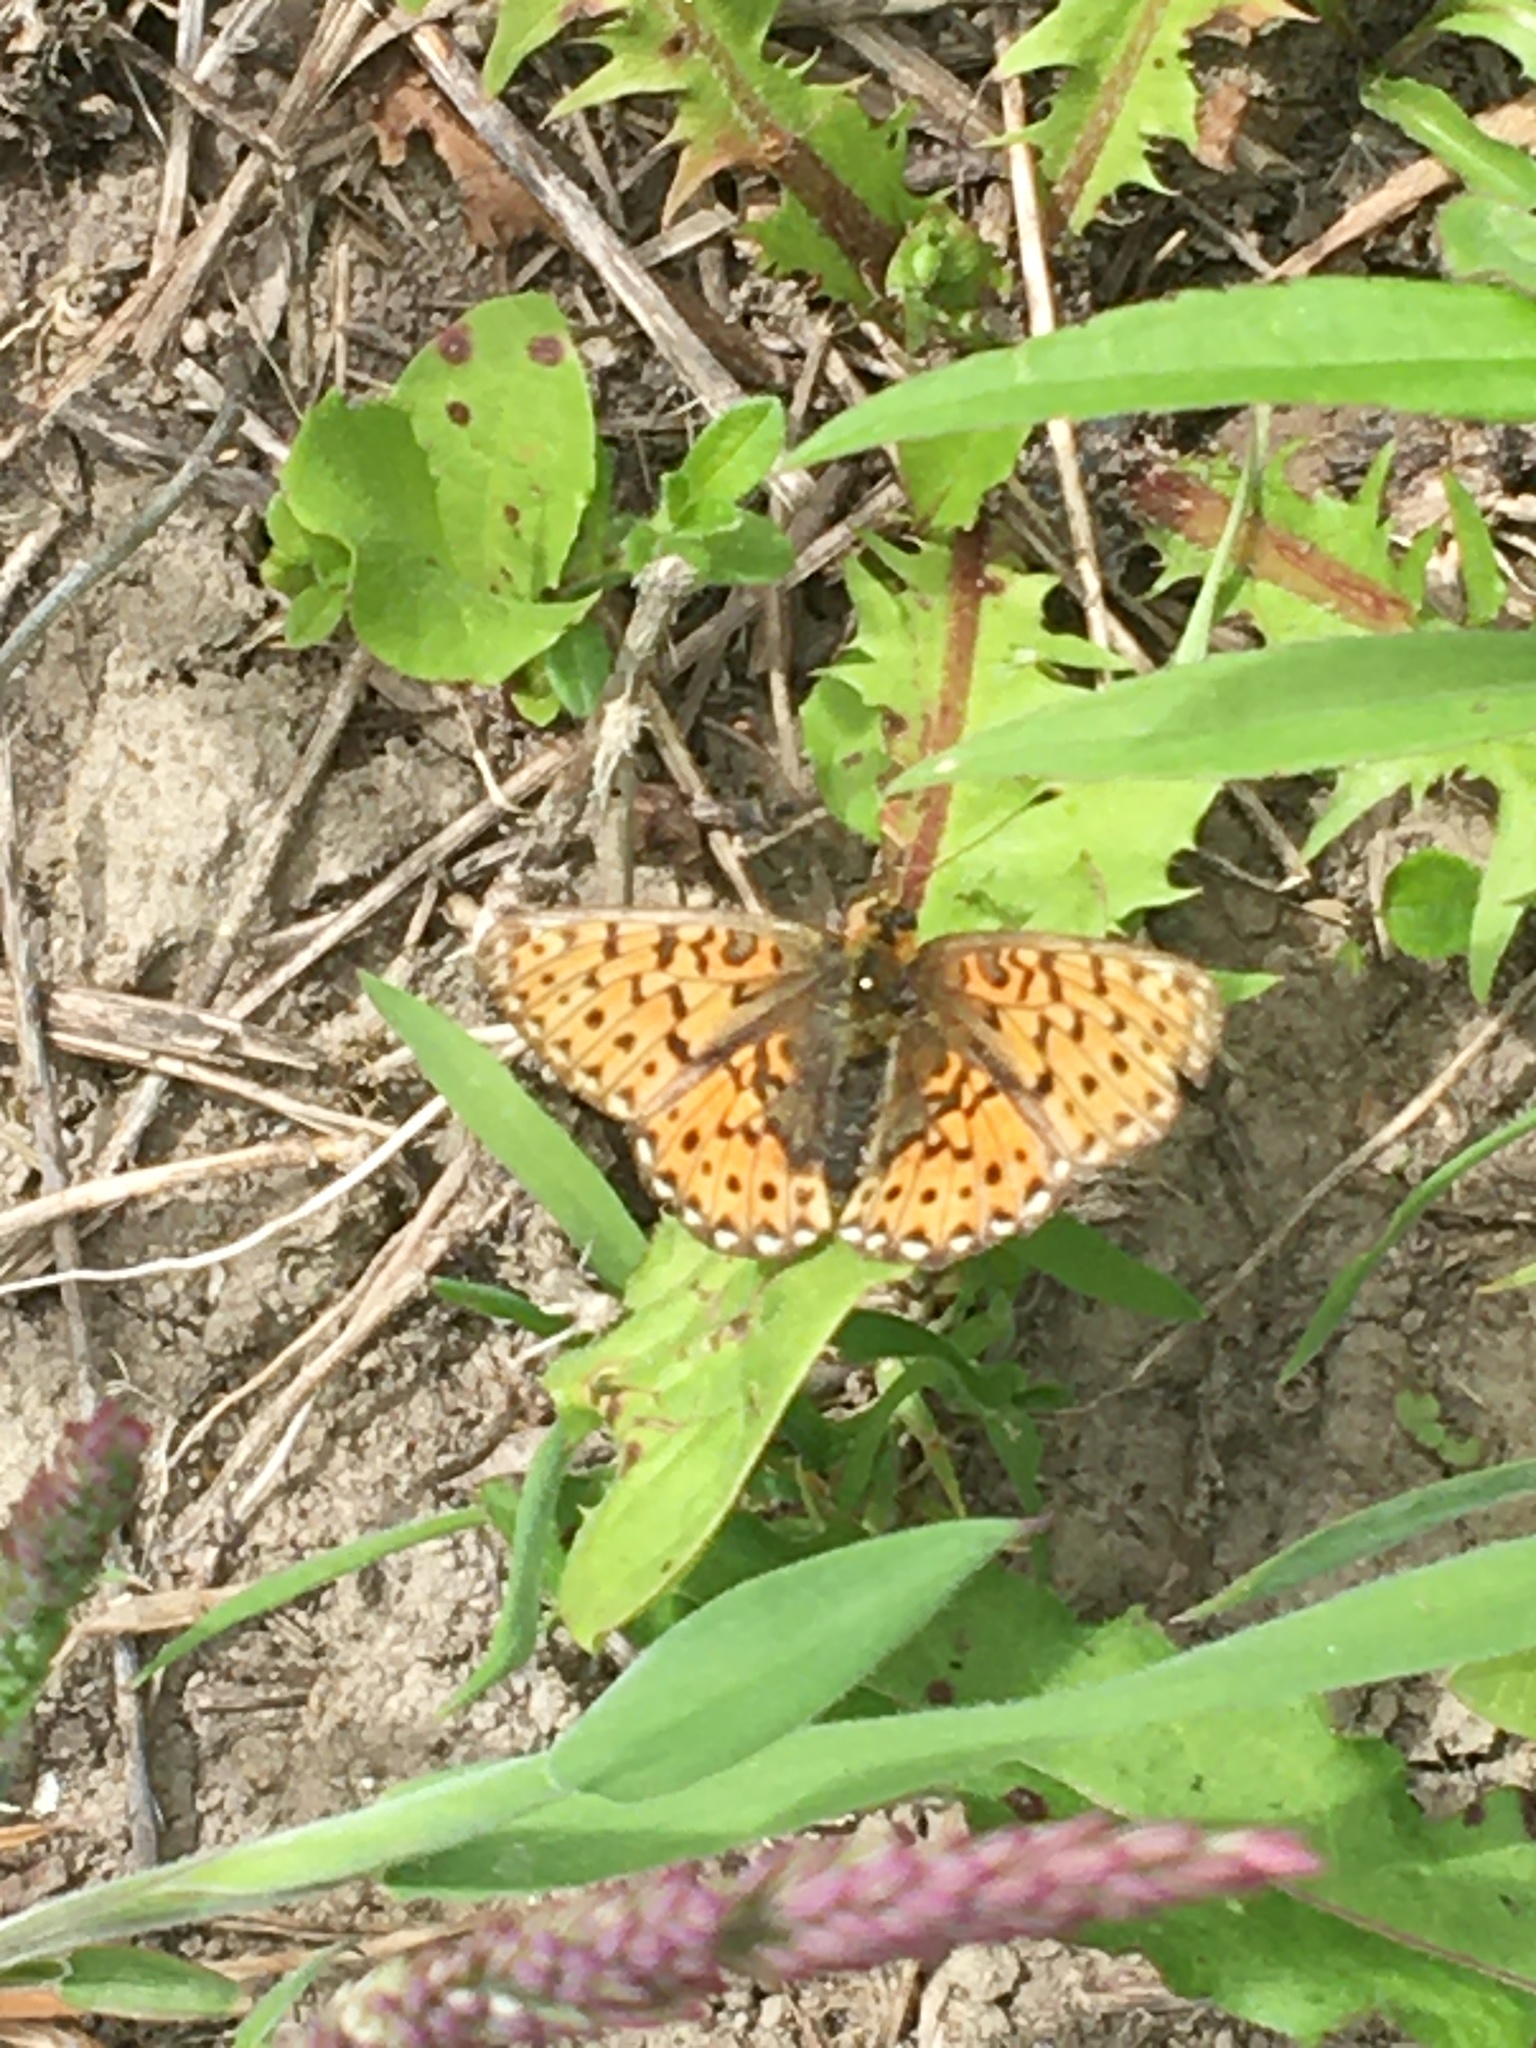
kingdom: Animalia
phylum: Arthropoda
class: Insecta
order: Lepidoptera
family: Nymphalidae
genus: Clossiana
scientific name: Clossiana euphrosyne
